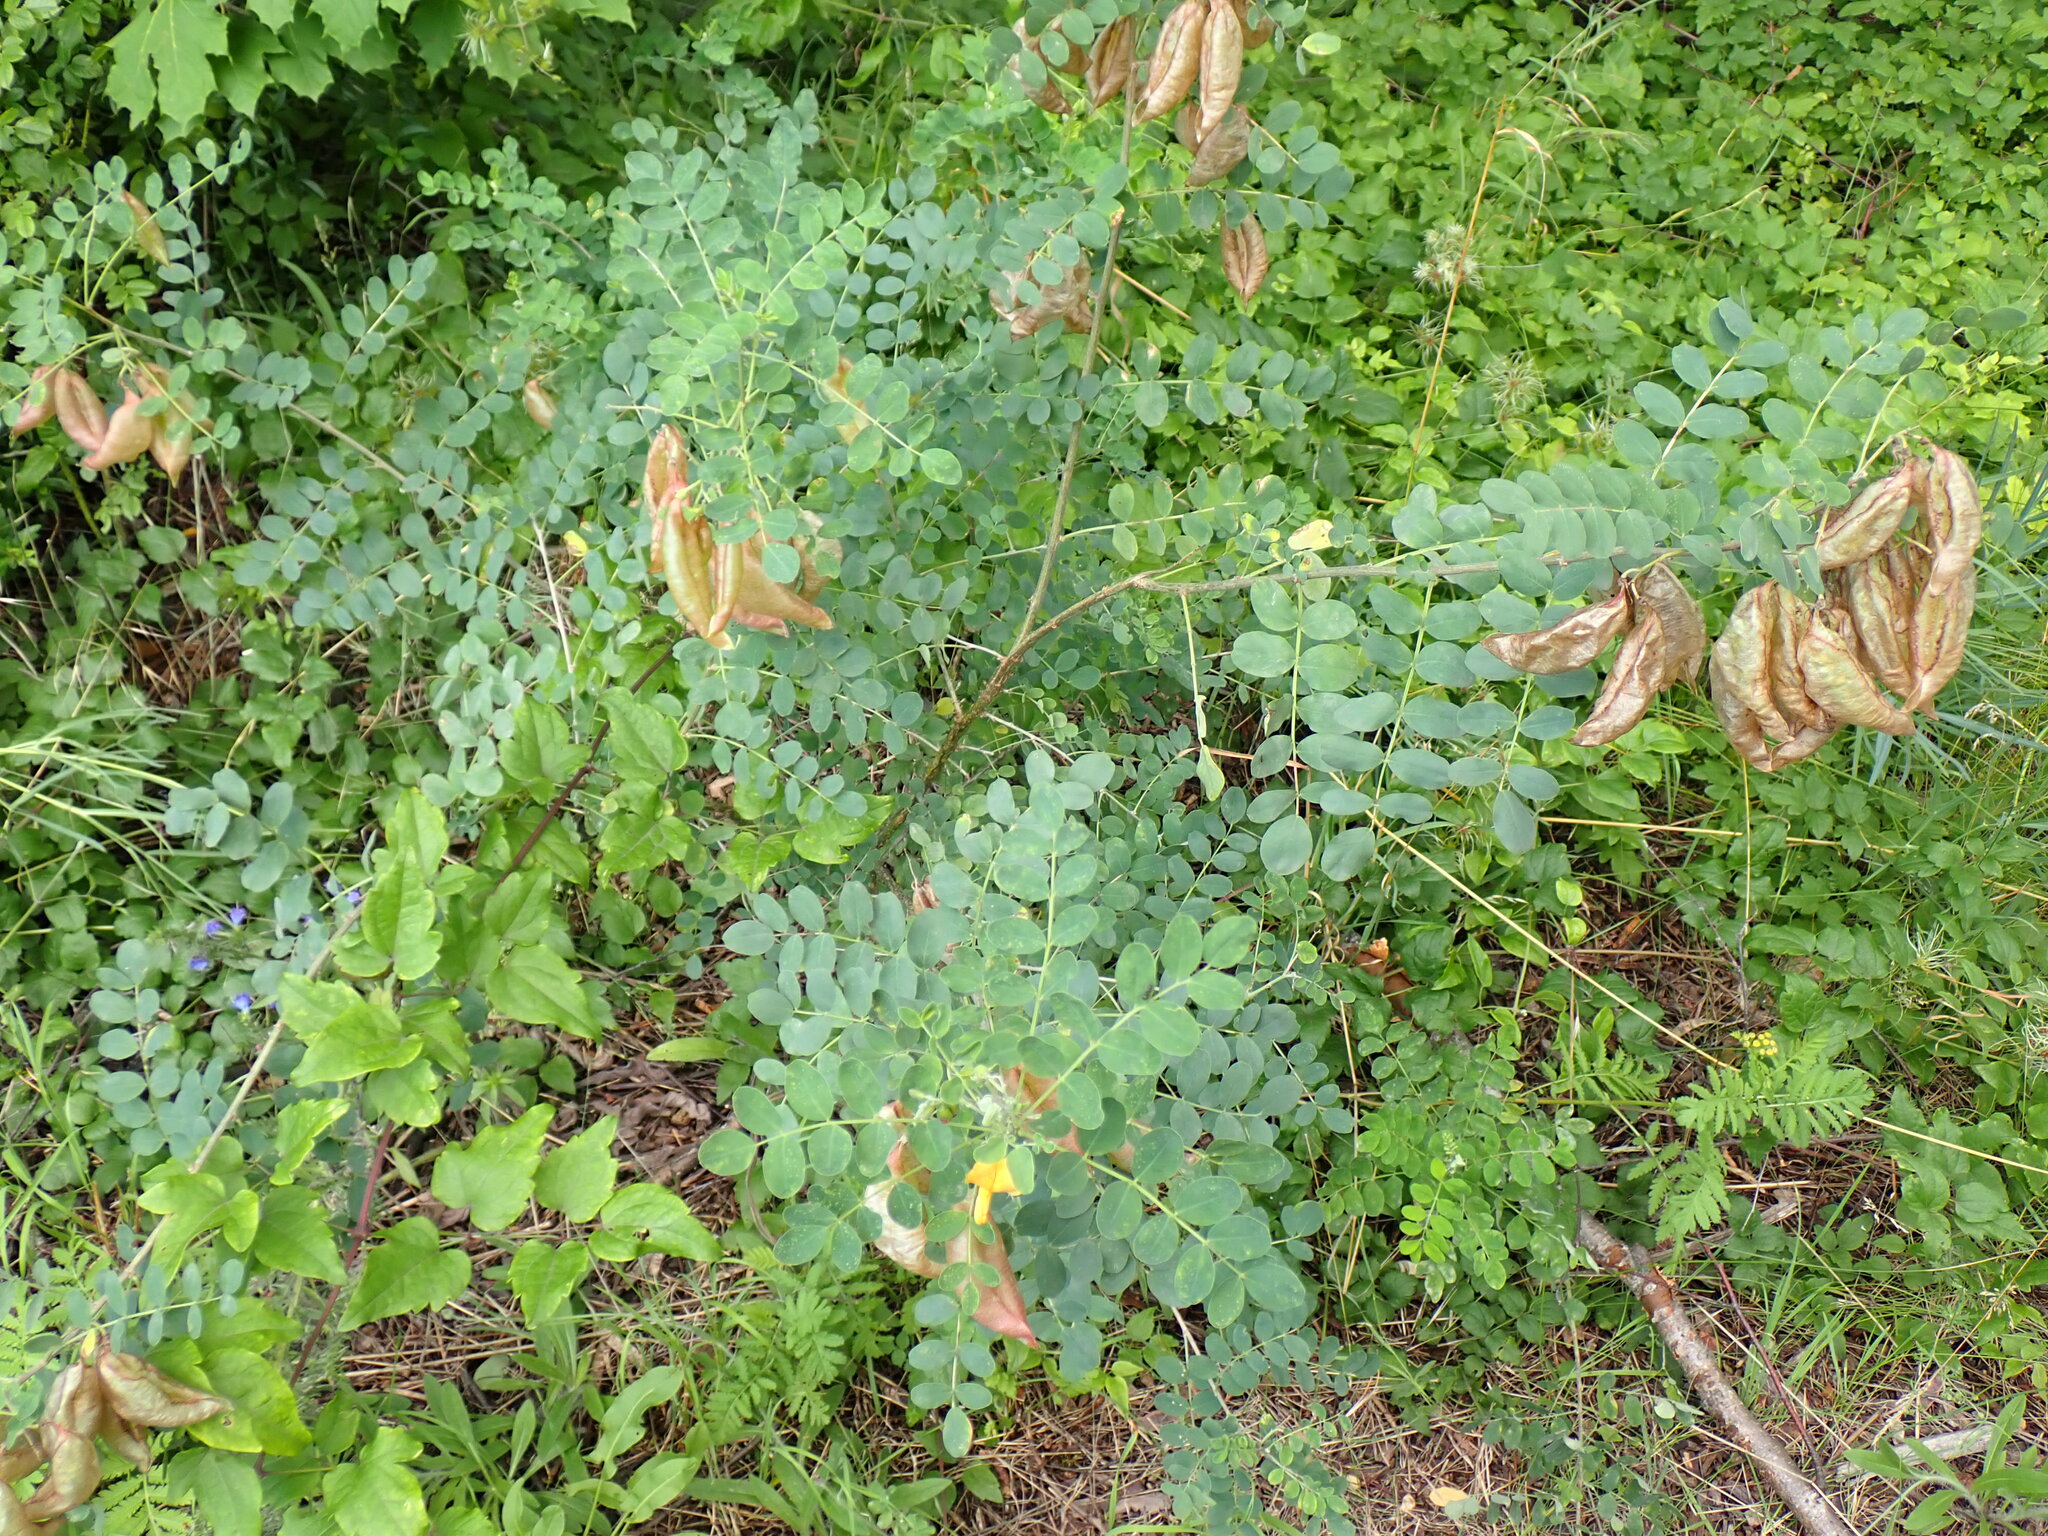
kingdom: Plantae
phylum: Tracheophyta
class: Magnoliopsida
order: Fabales
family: Fabaceae
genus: Colutea
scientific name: Colutea arborescens
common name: Bladder-senna
